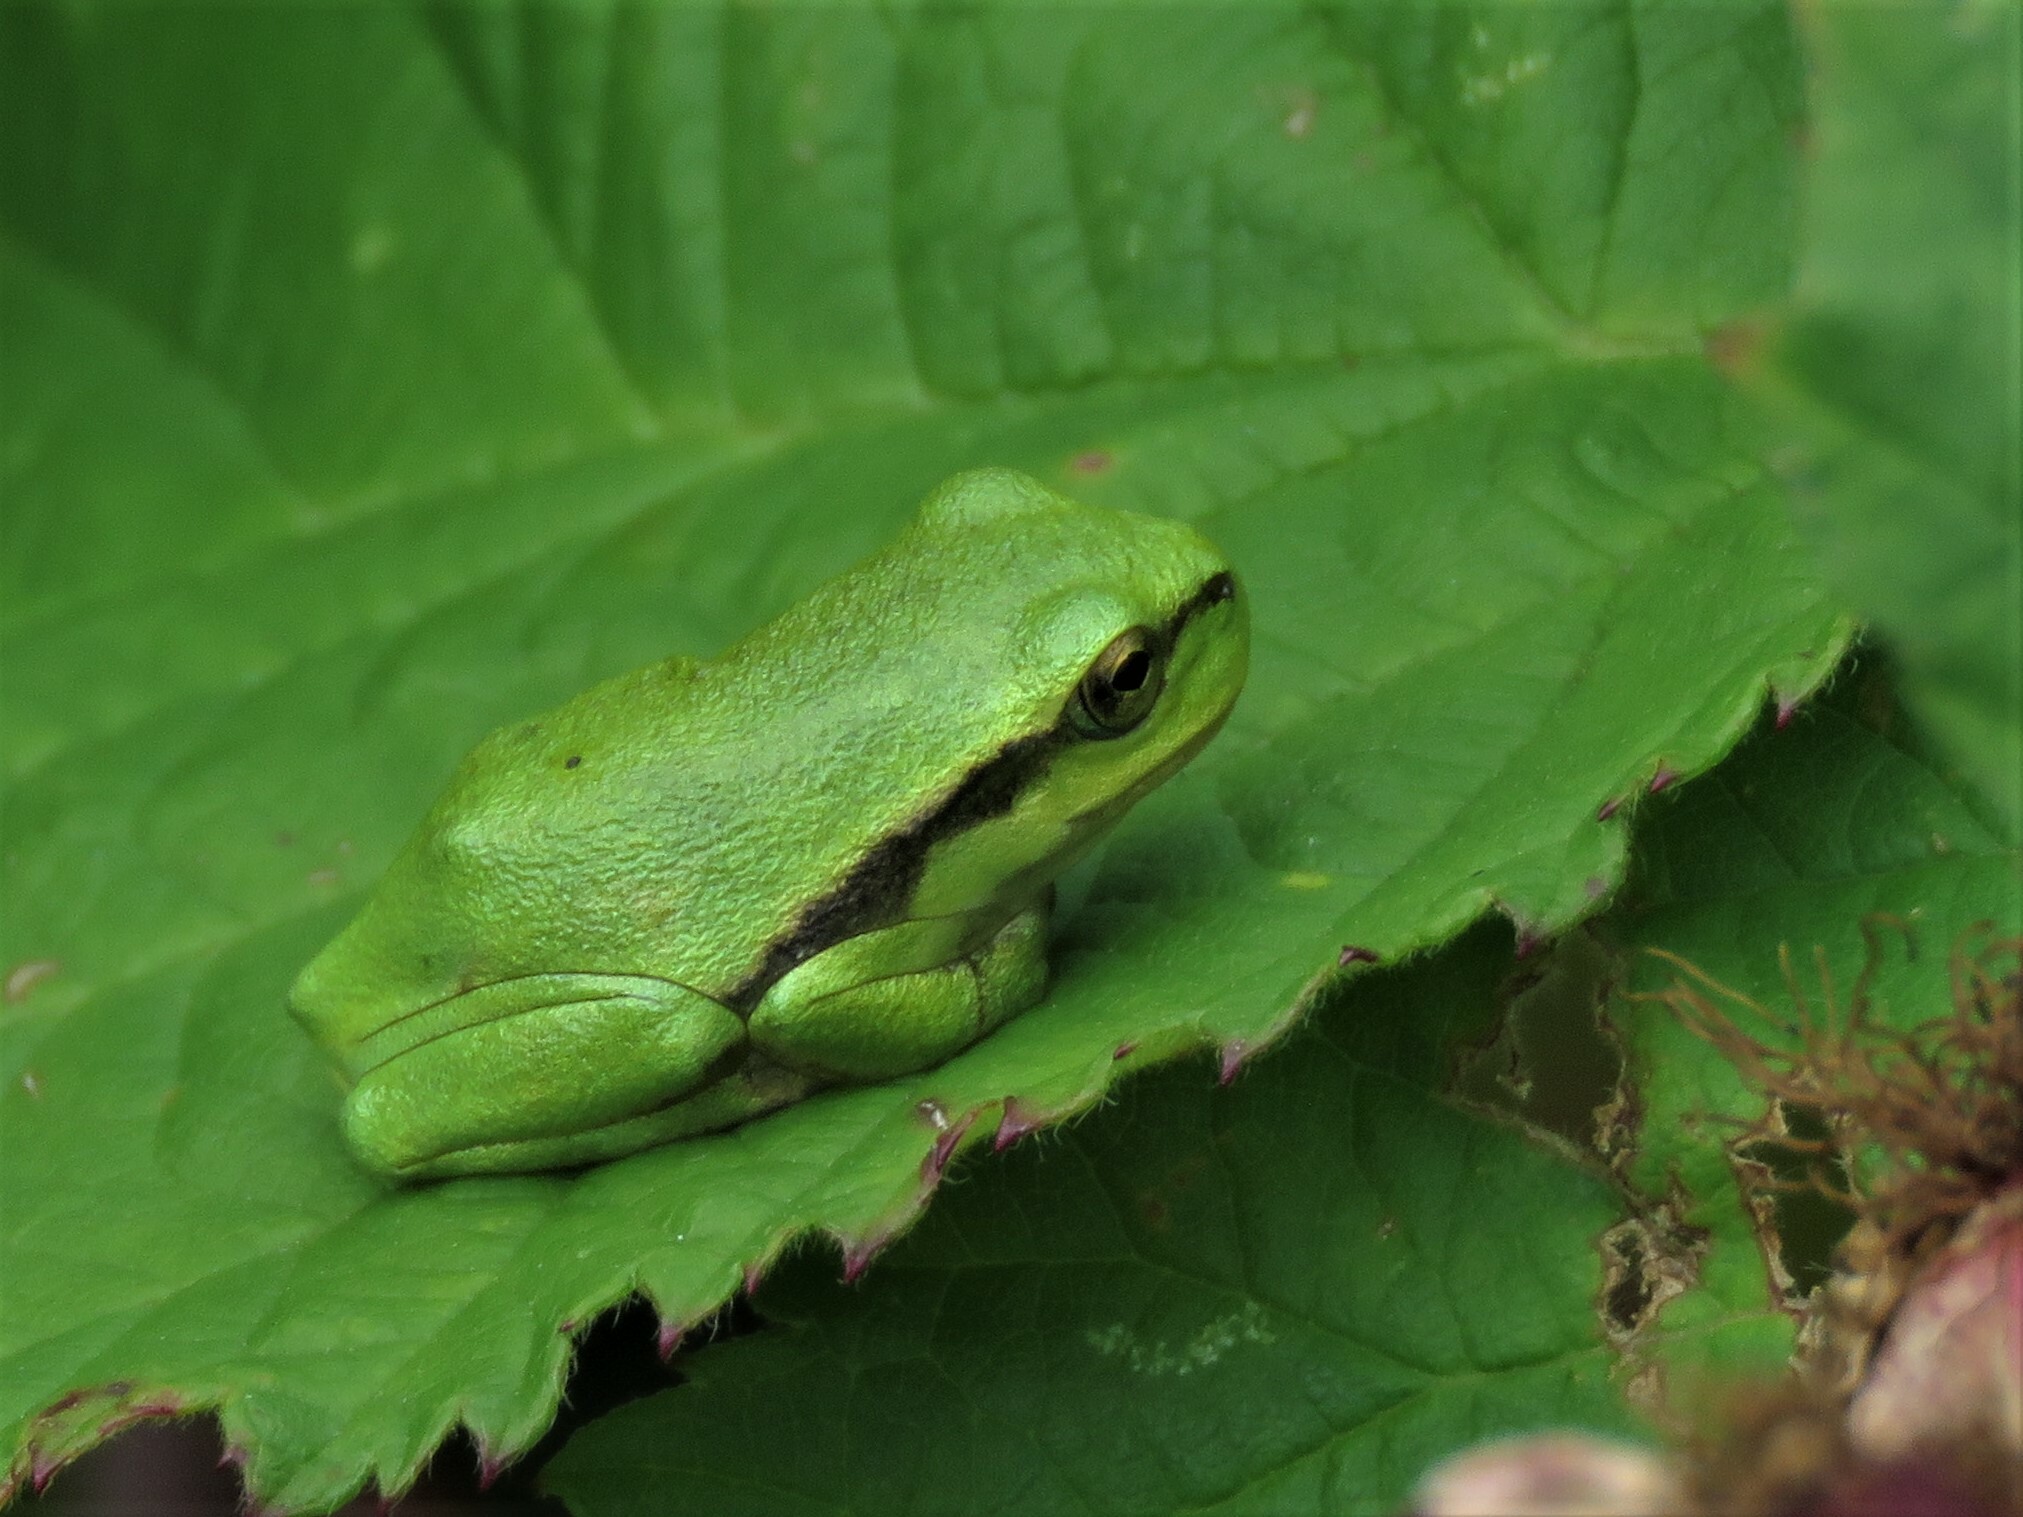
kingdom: Animalia
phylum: Chordata
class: Amphibia
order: Anura
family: Hylidae
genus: Hyla
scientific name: Hyla arborea
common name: Common tree frog
